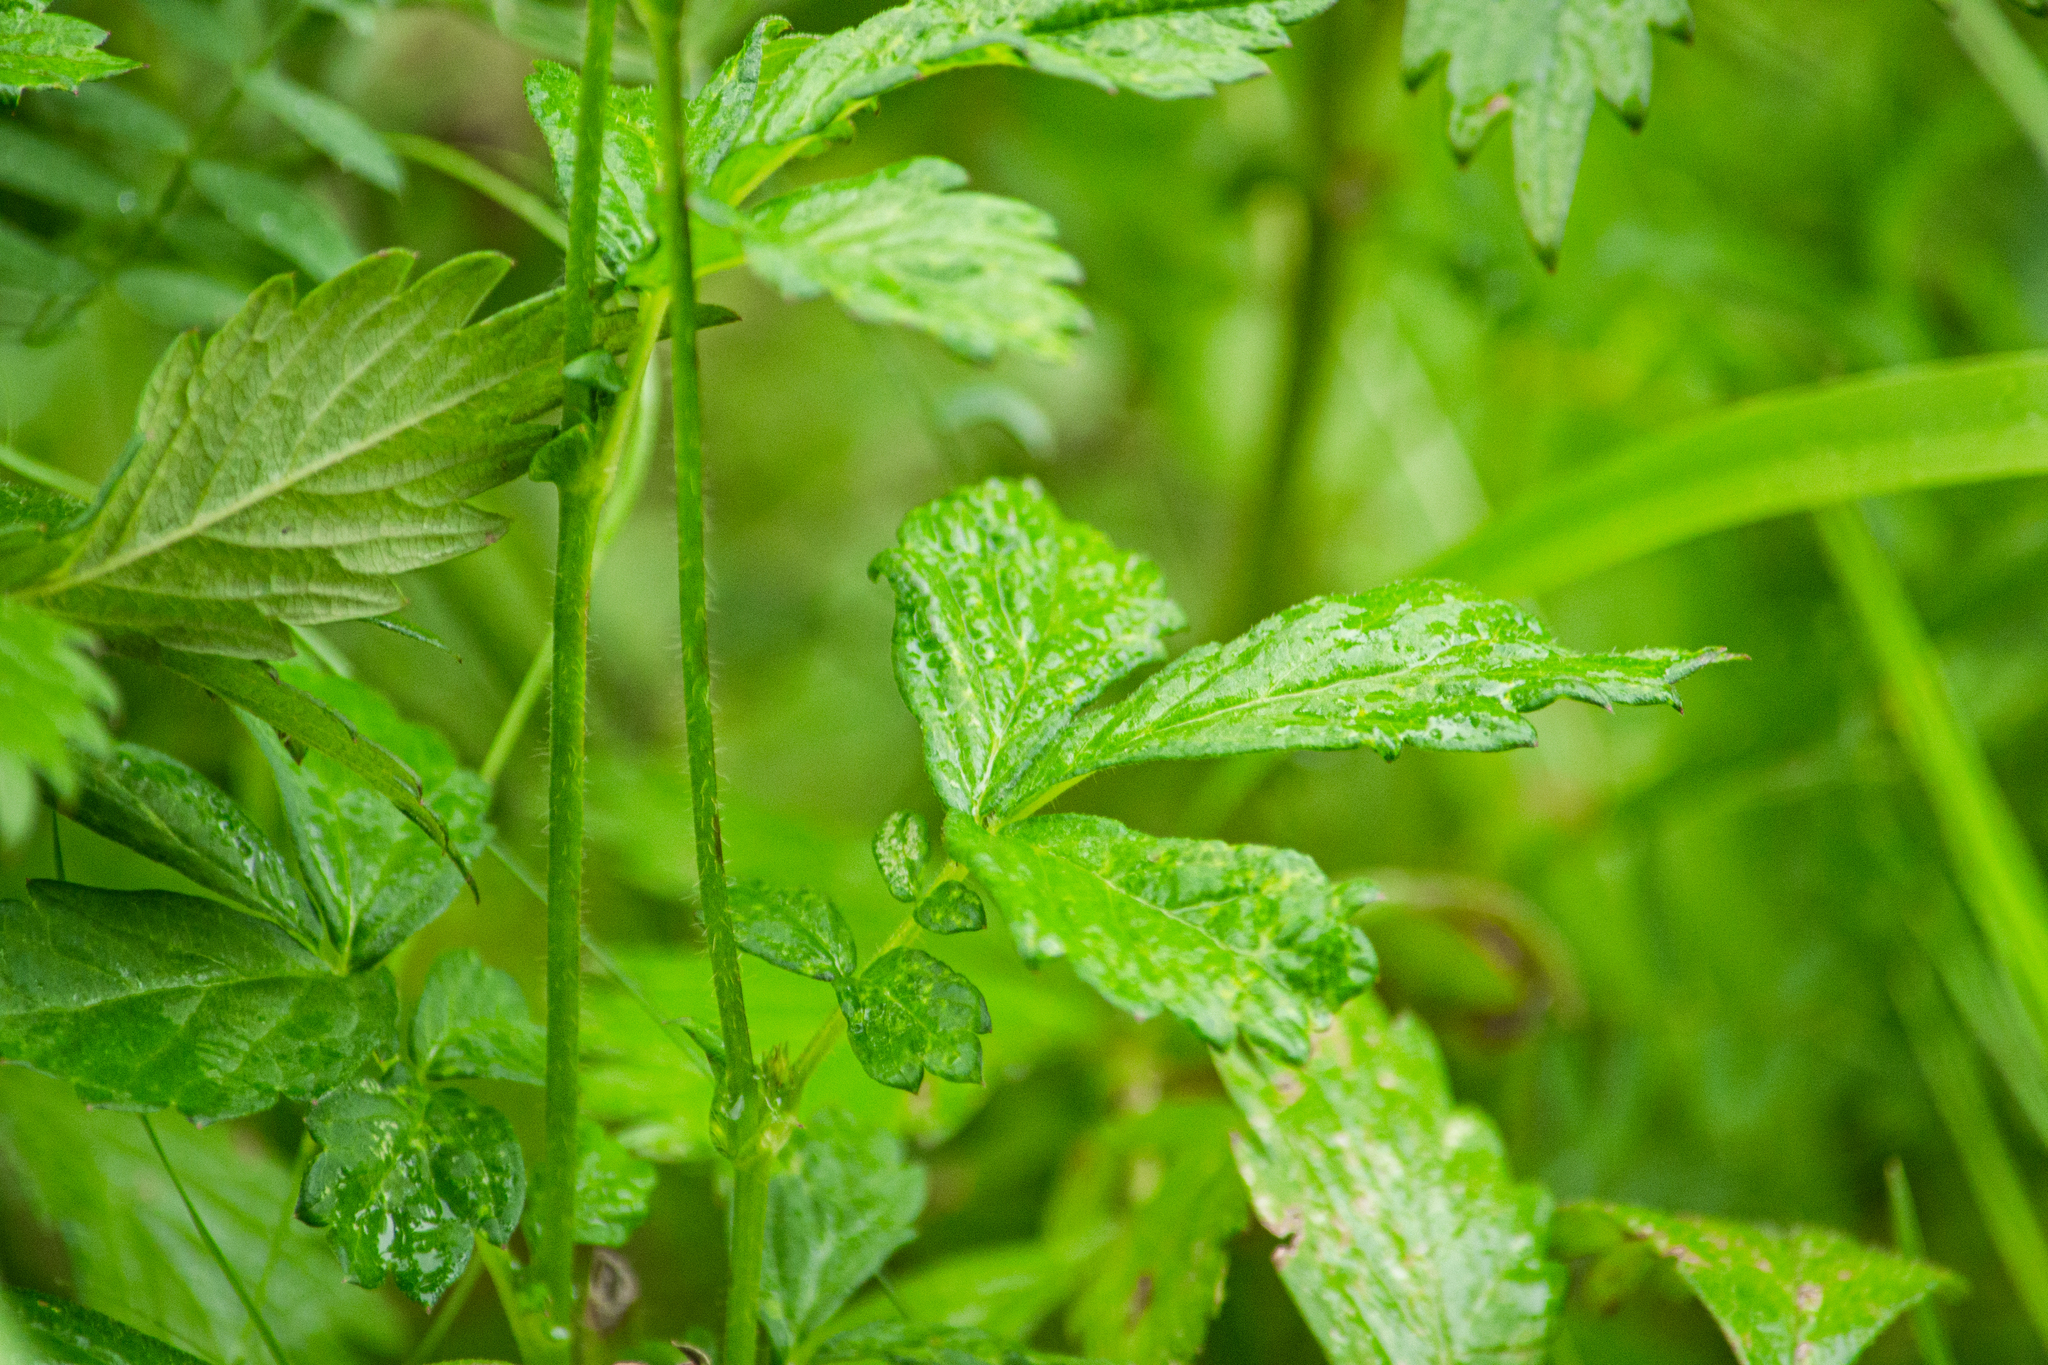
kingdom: Plantae
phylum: Tracheophyta
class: Magnoliopsida
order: Rosales
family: Rosaceae
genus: Agrimonia
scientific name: Agrimonia pilosa
